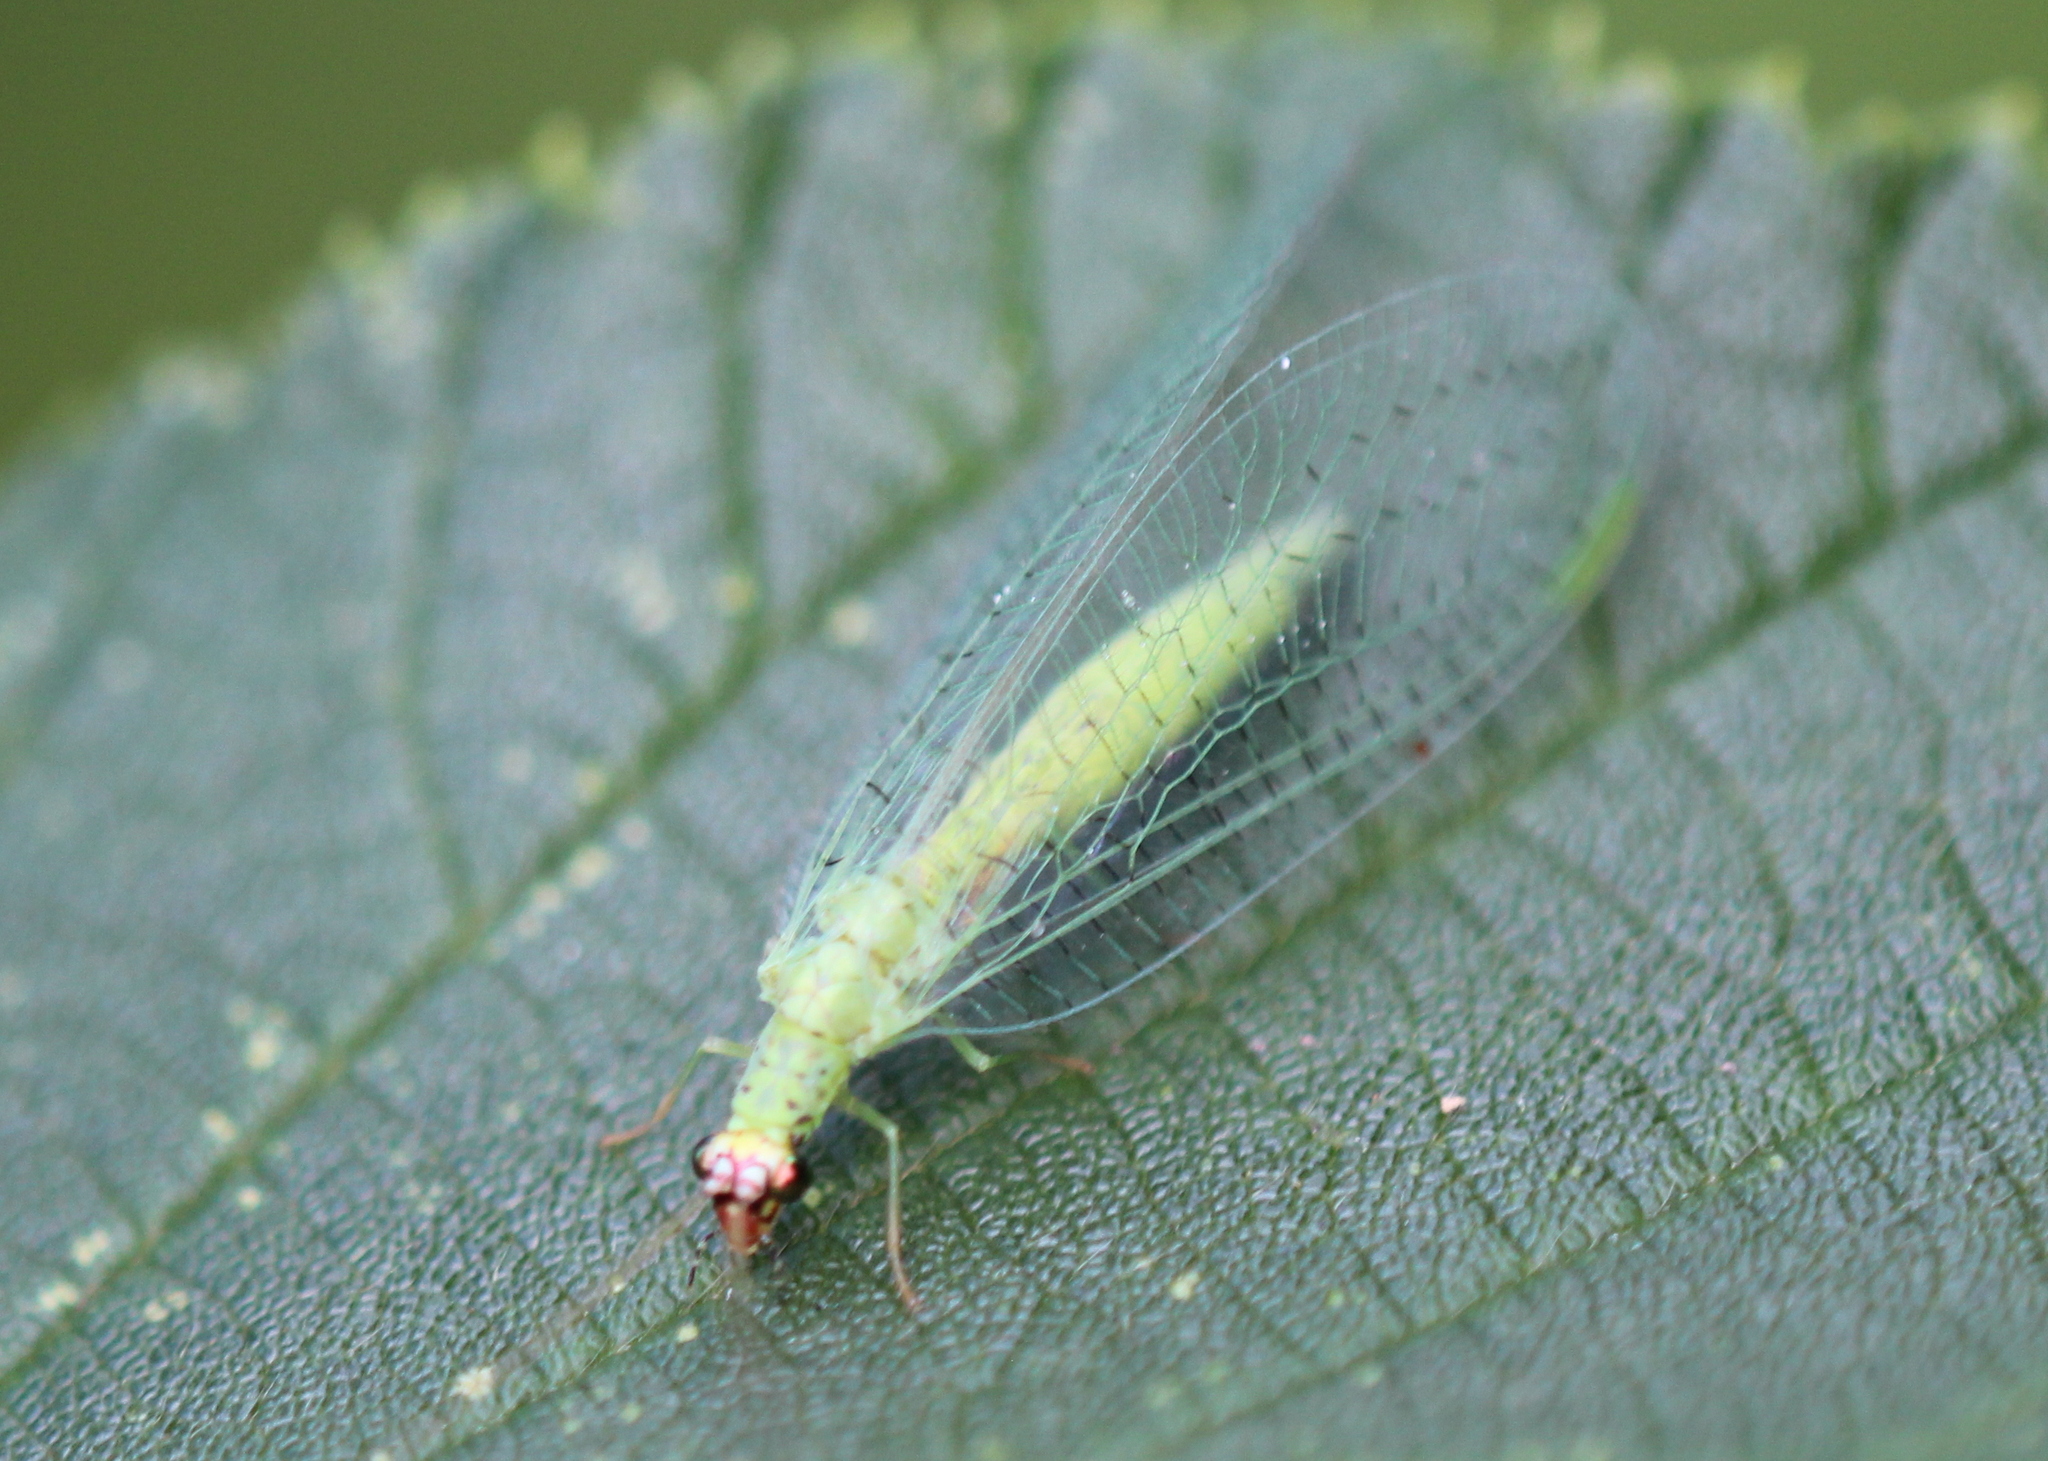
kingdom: Animalia
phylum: Arthropoda
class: Insecta
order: Neuroptera
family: Chrysopidae
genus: Chrysopa
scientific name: Chrysopa oculata
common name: Golden-eyed lacewing
